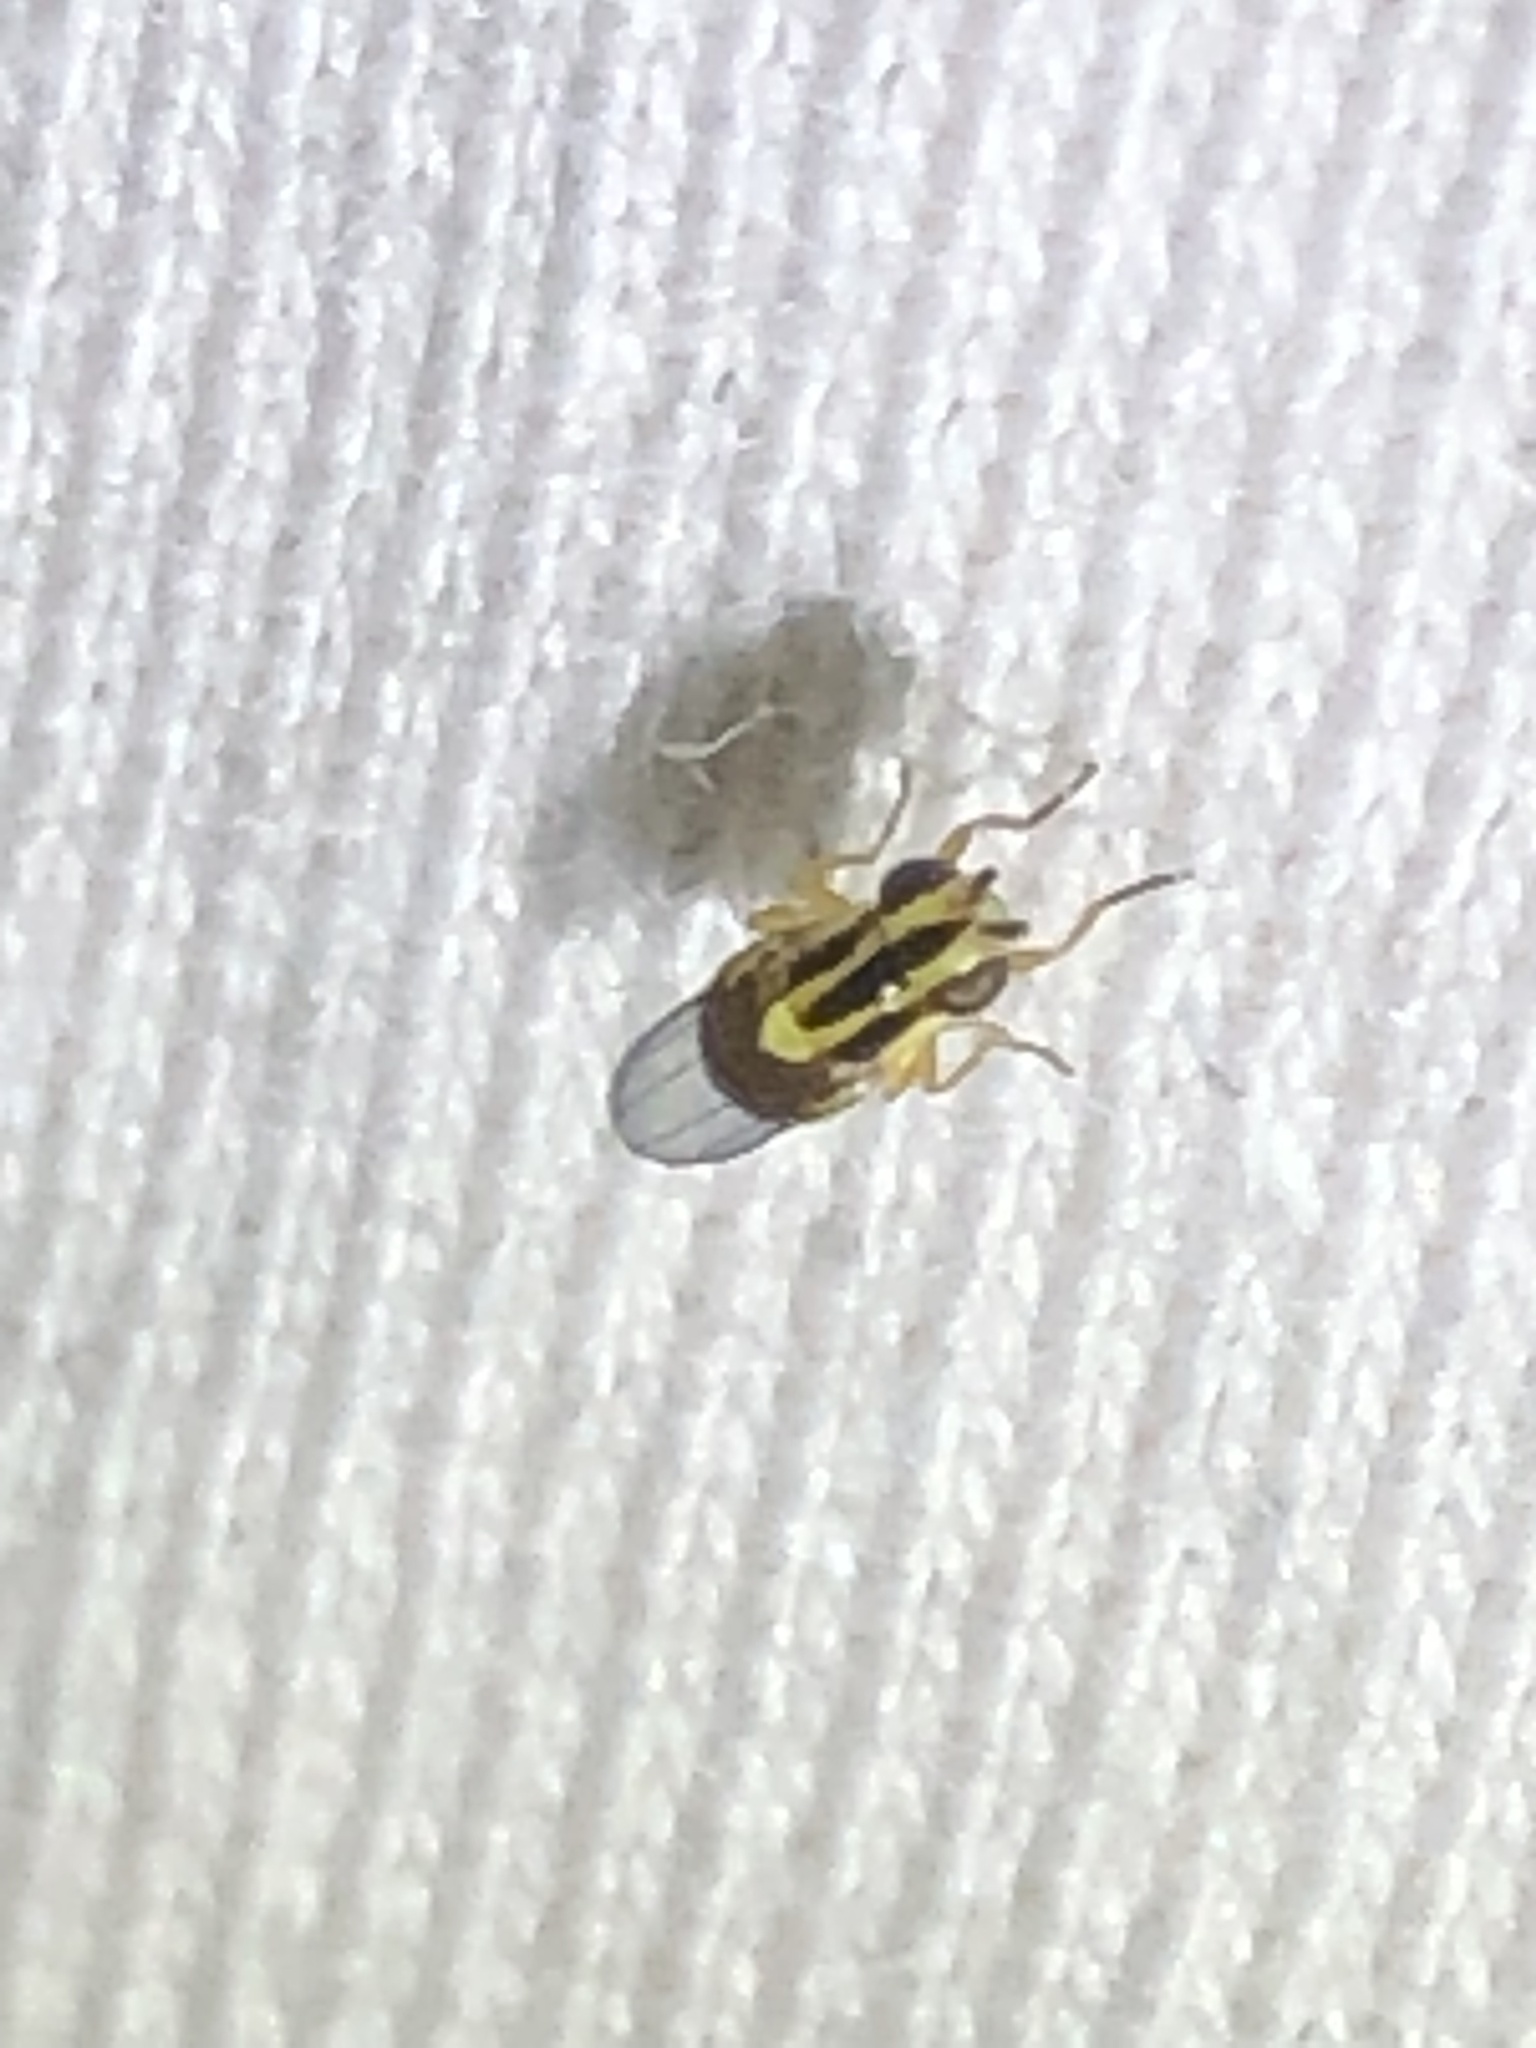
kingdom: Animalia
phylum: Arthropoda
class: Insecta
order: Diptera
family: Chloropidae
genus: Thaumatomyia
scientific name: Thaumatomyia glabra
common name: Chloropid fly
